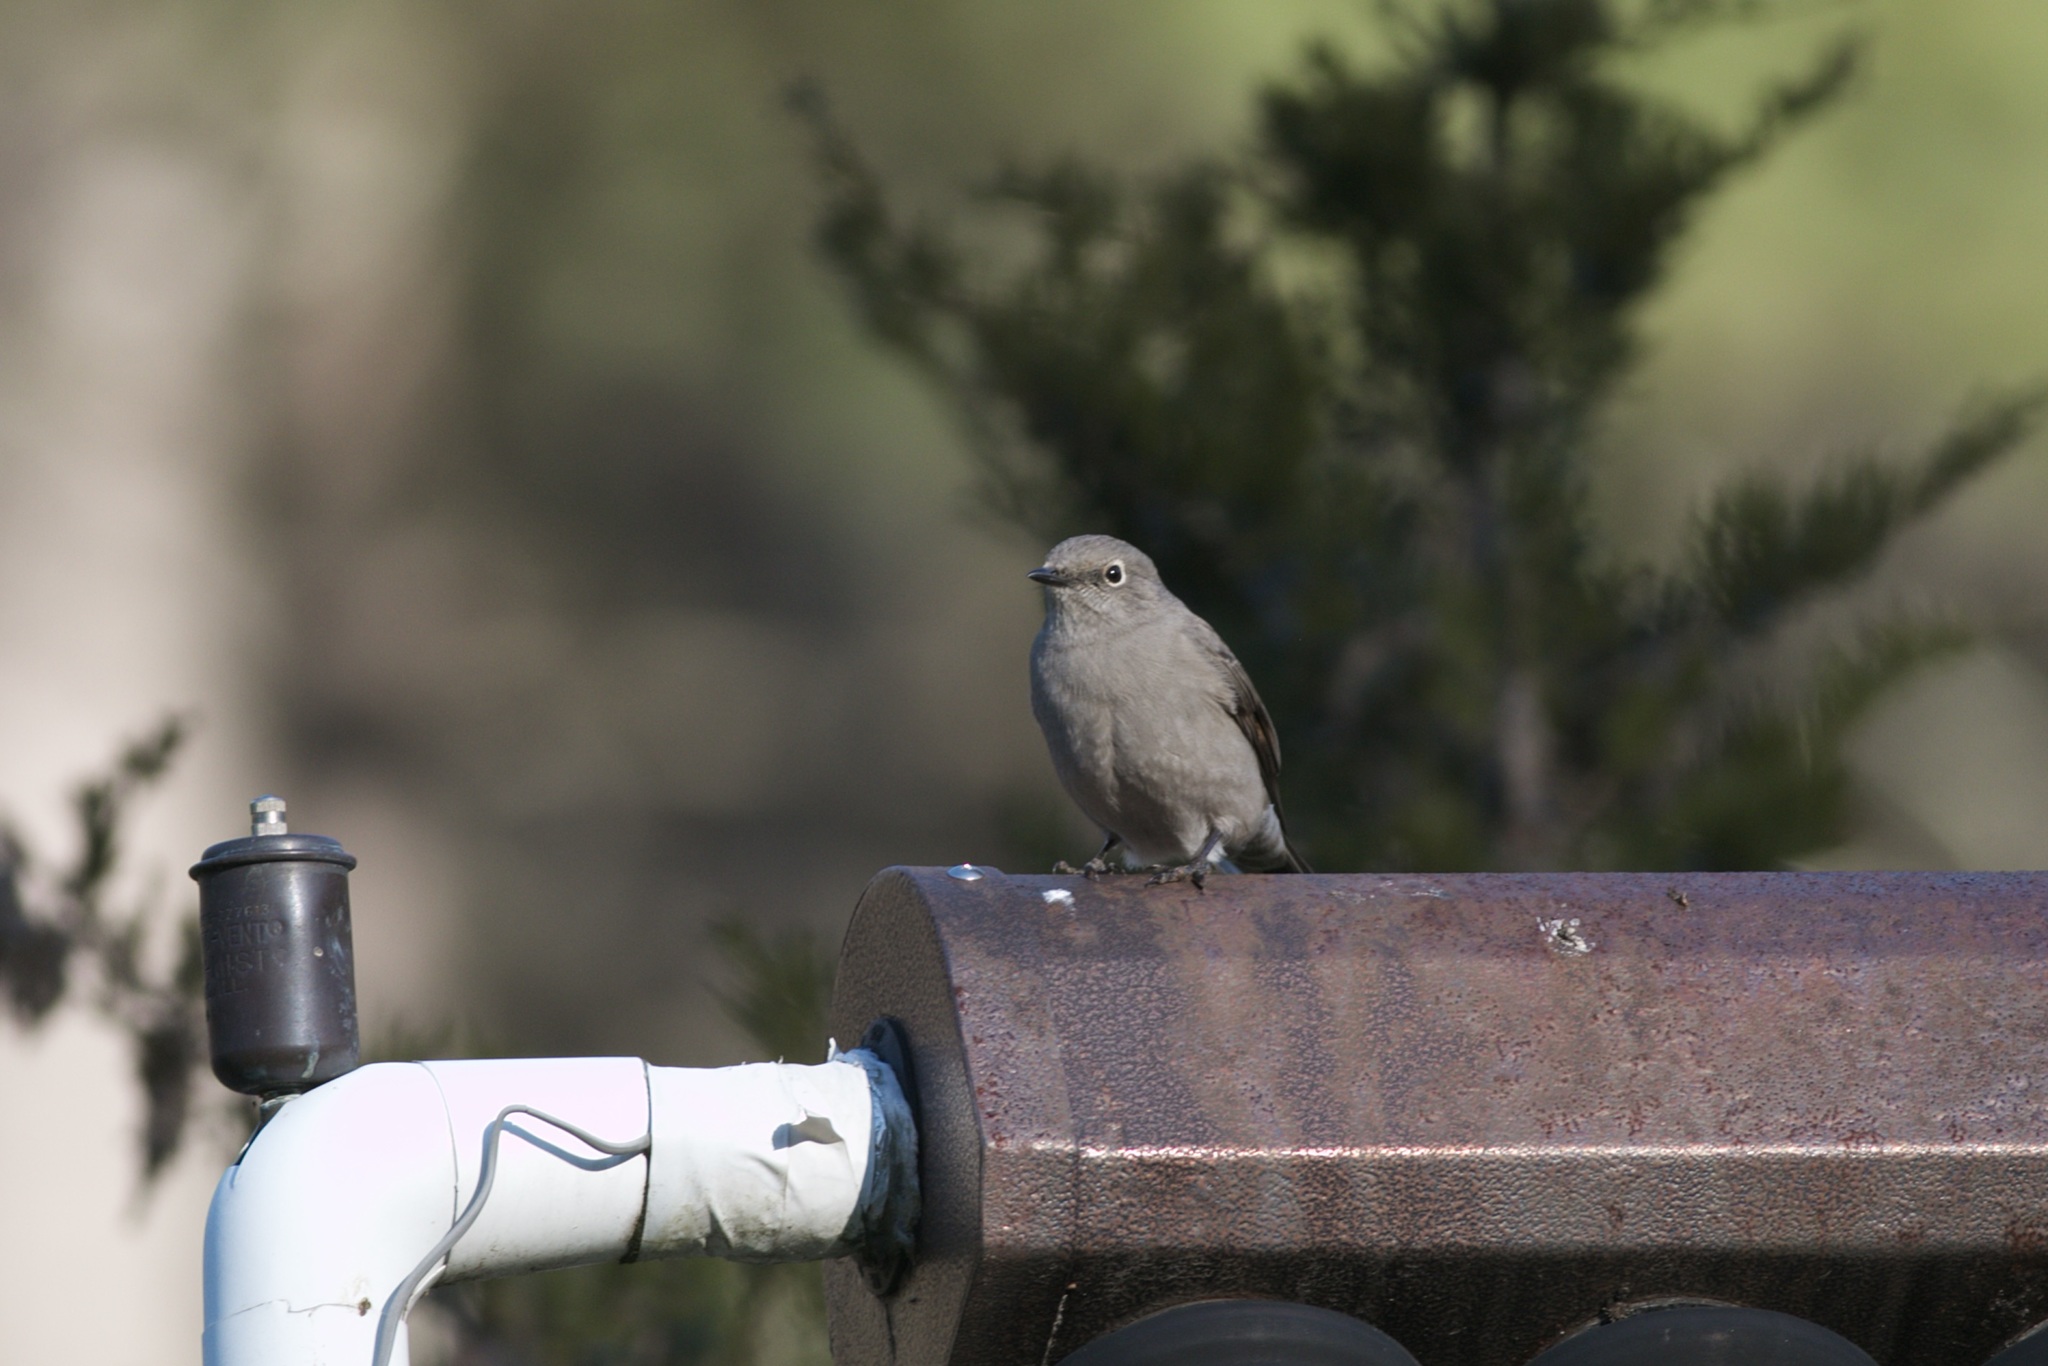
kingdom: Animalia
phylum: Chordata
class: Aves
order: Passeriformes
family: Turdidae
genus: Myadestes
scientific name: Myadestes townsendi
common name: Townsend's solitaire
